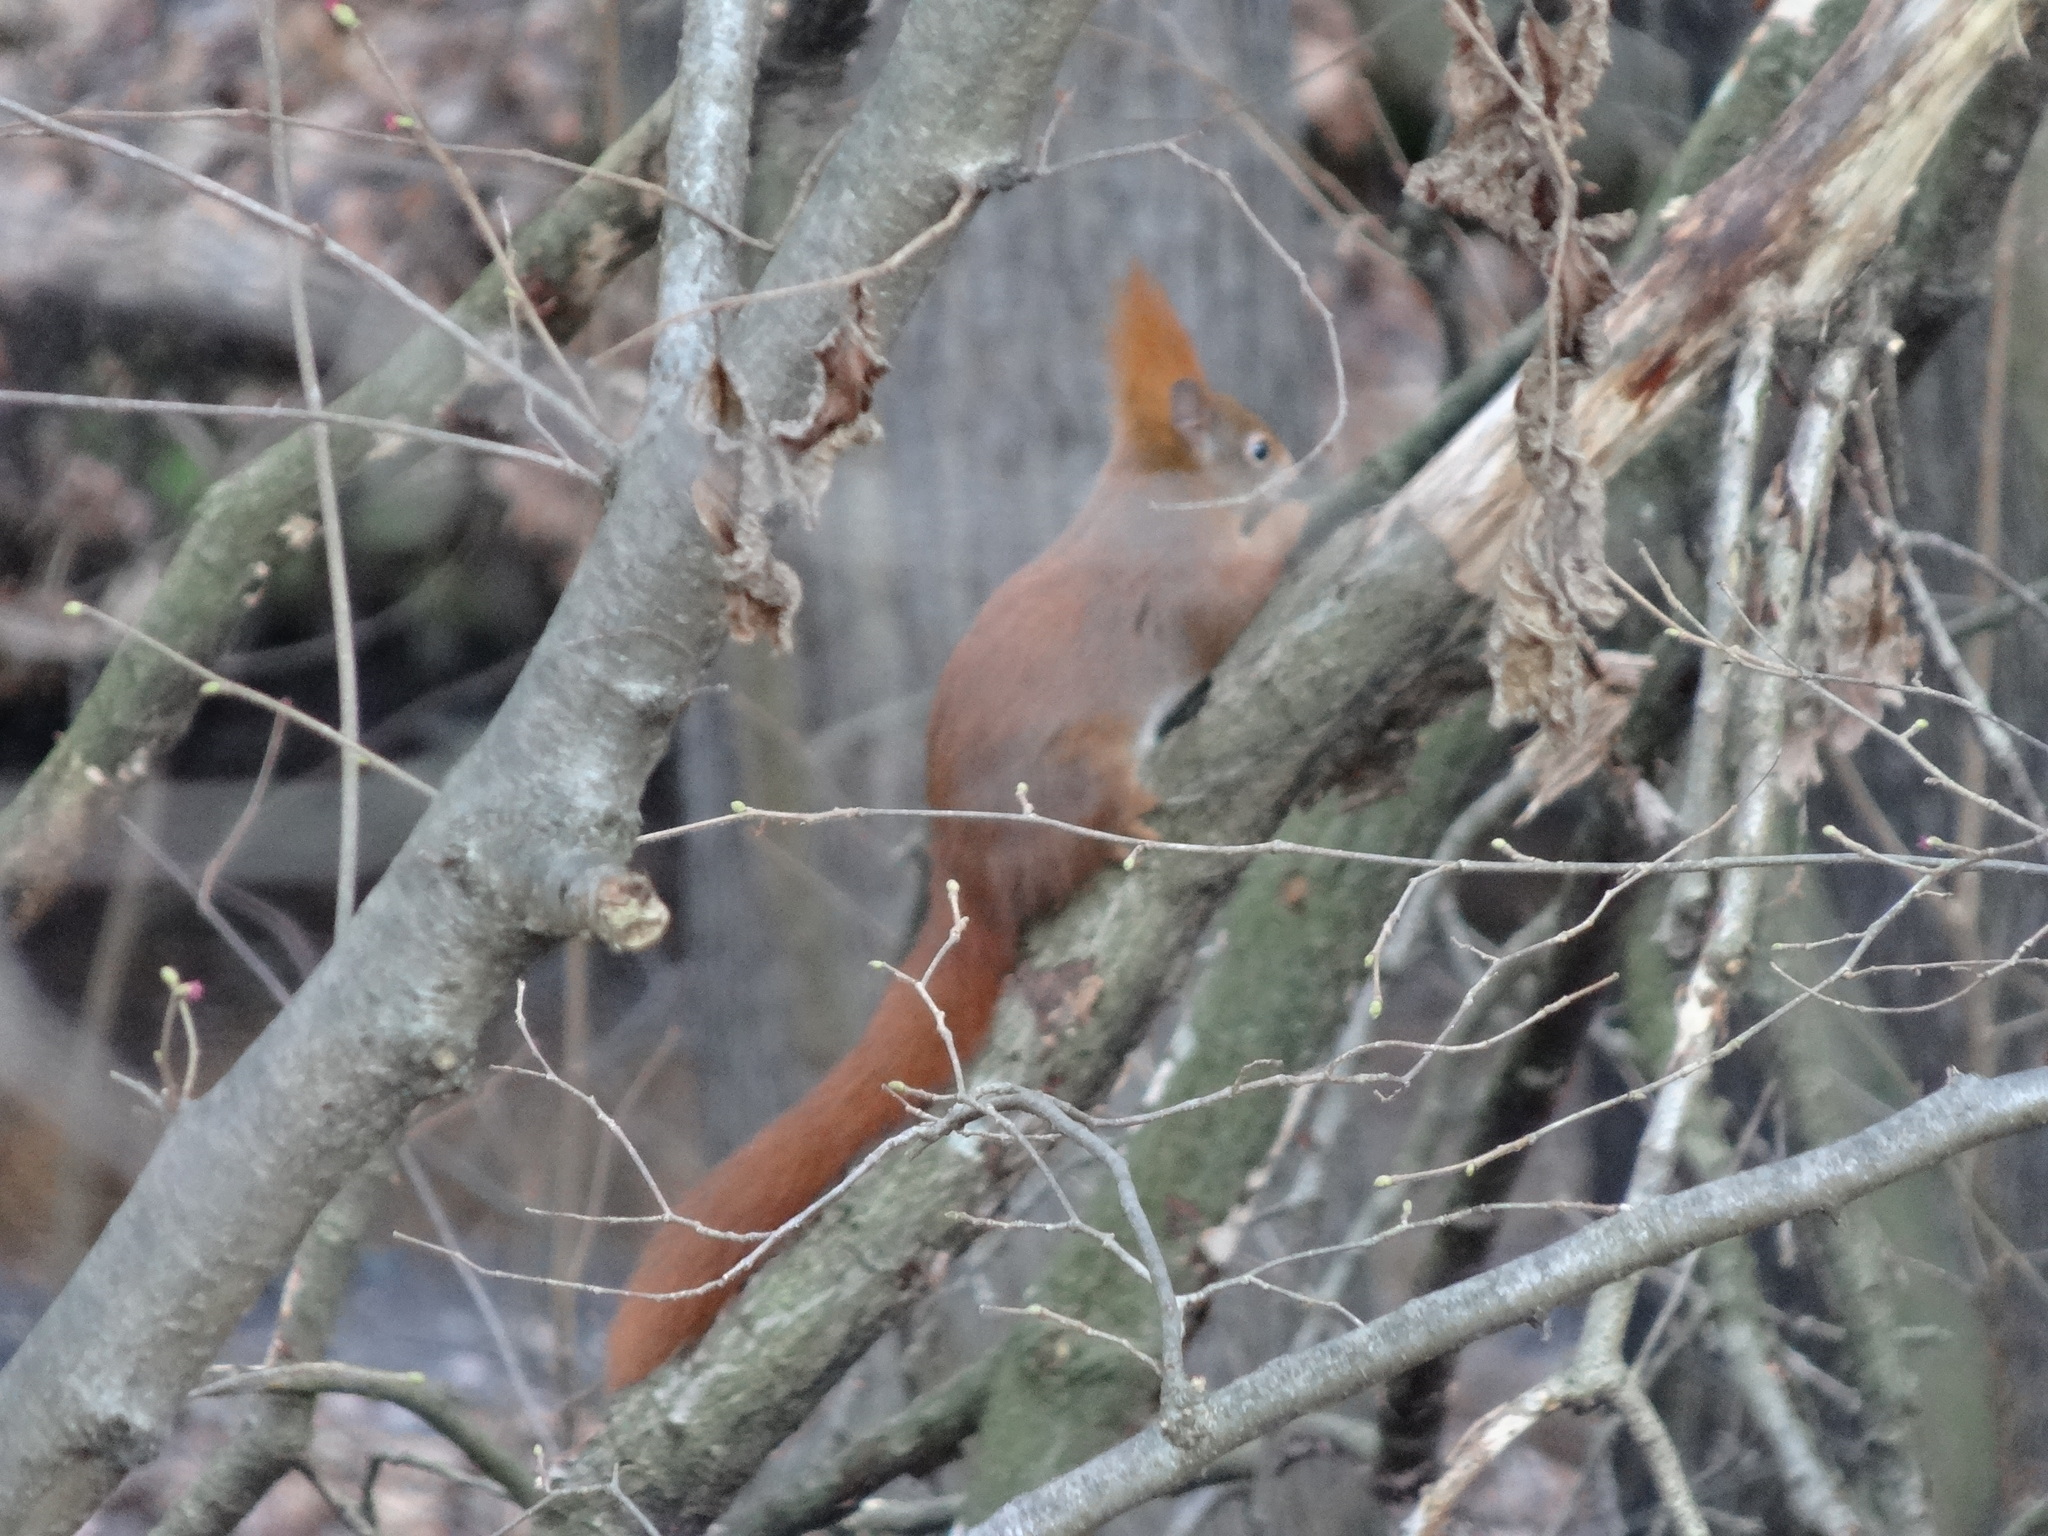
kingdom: Animalia
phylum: Chordata
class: Mammalia
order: Rodentia
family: Sciuridae
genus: Sciurus
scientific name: Sciurus vulgaris
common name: Eurasian red squirrel
